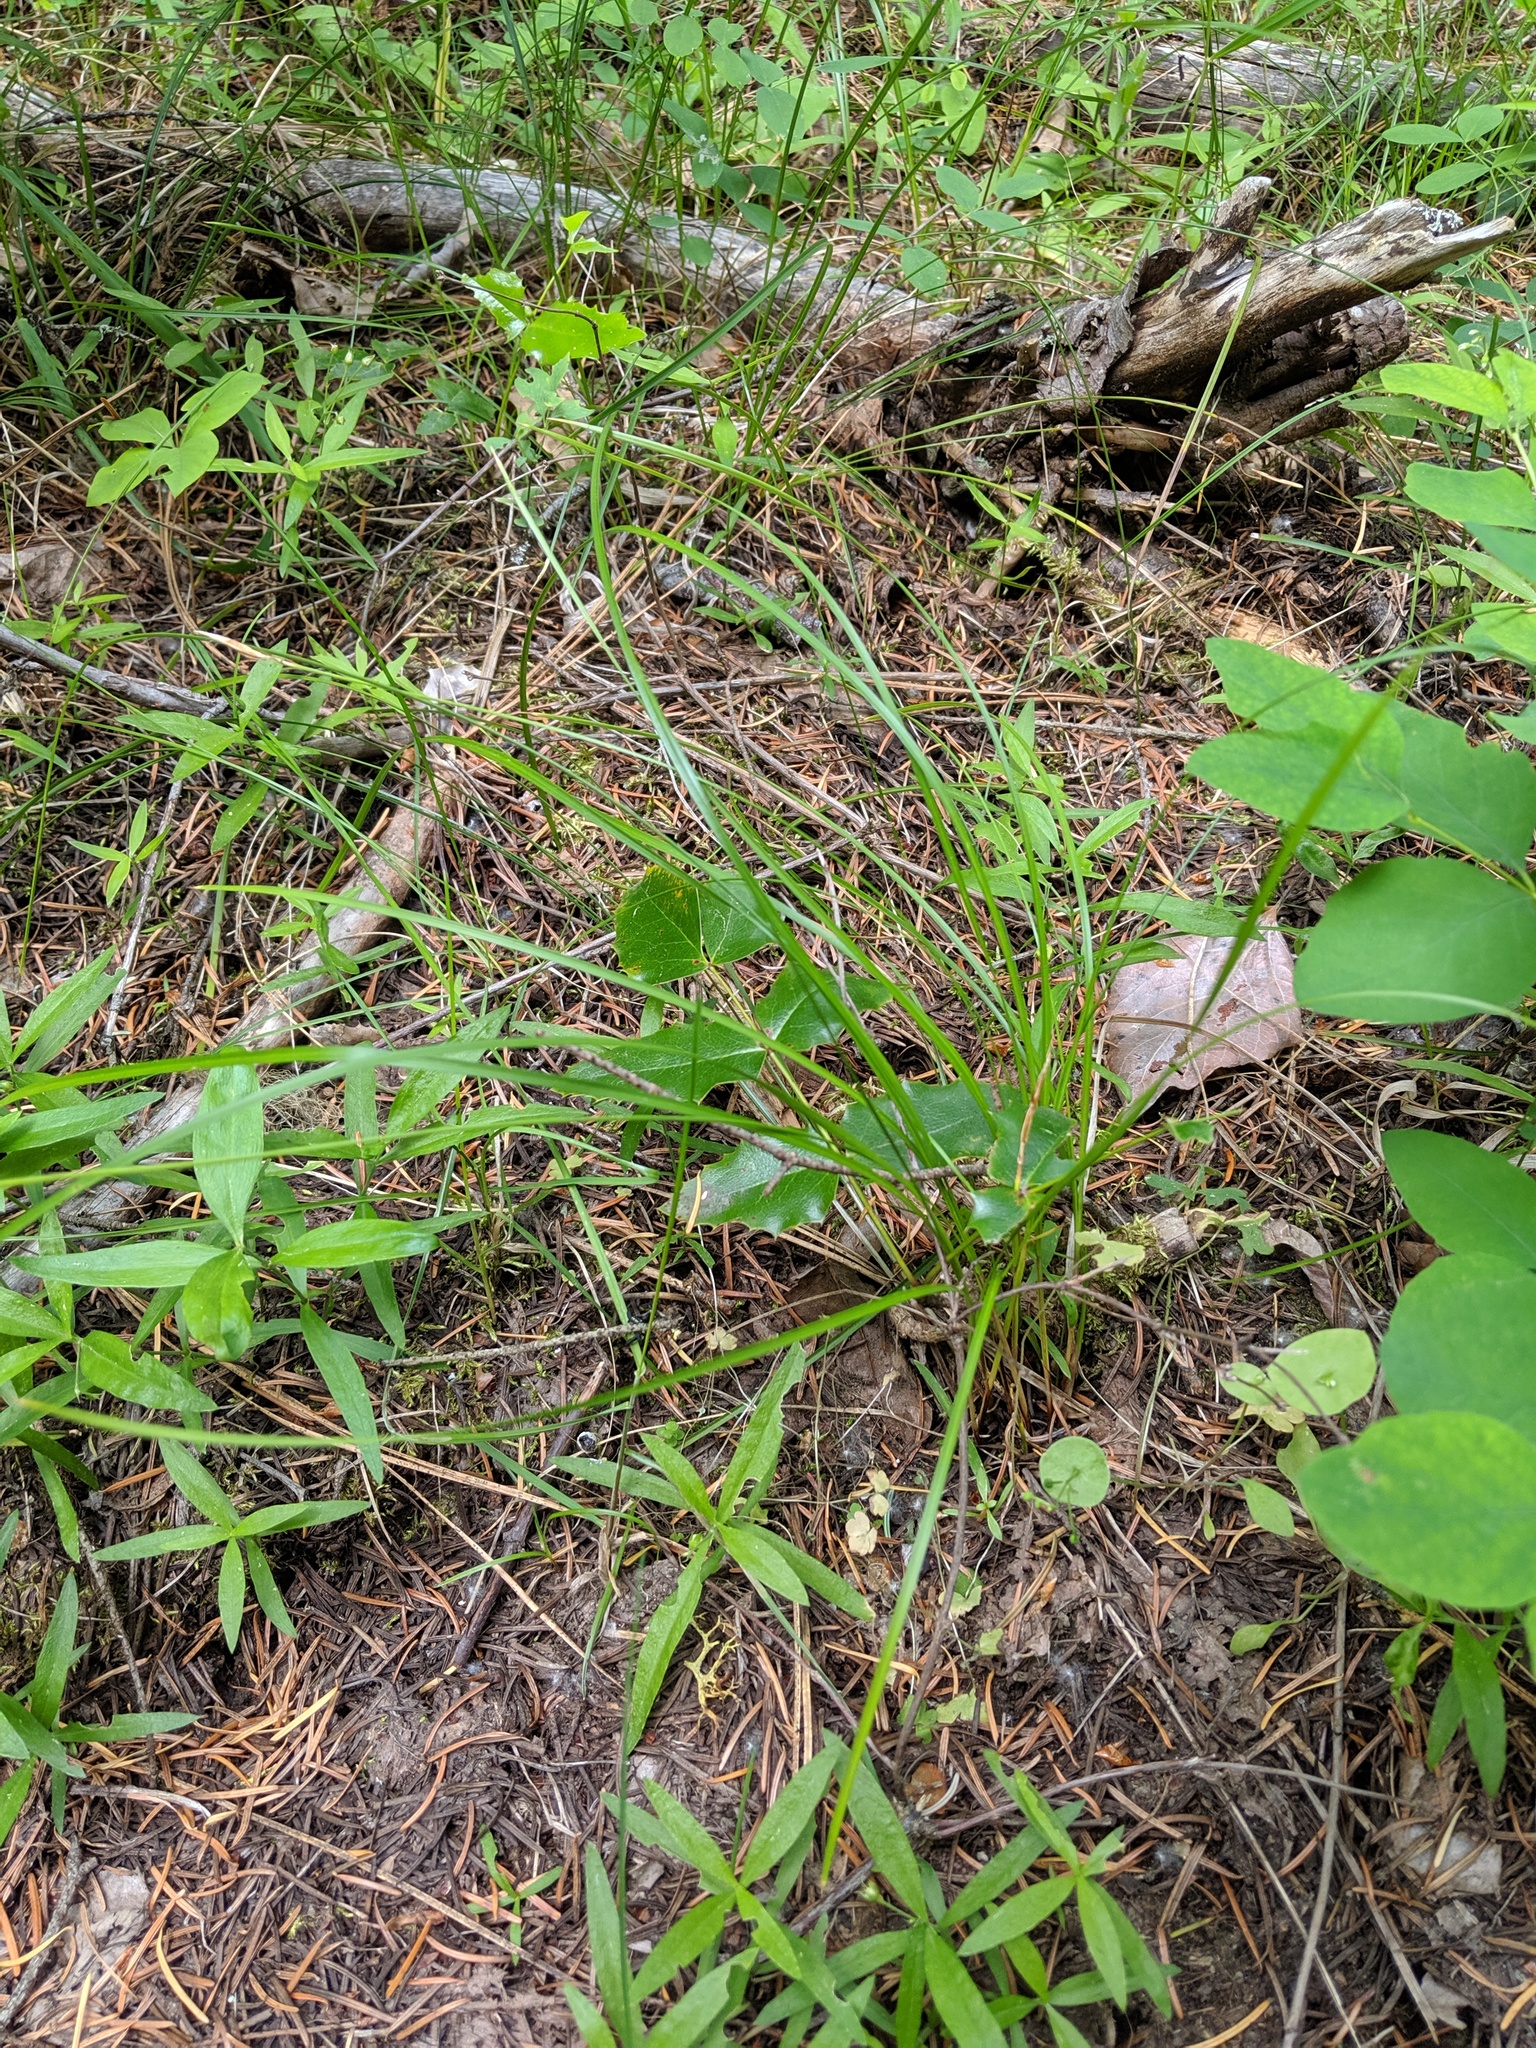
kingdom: Plantae
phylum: Tracheophyta
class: Liliopsida
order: Poales
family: Cyperaceae
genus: Carex
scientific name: Carex geyeri
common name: Elk sedge
